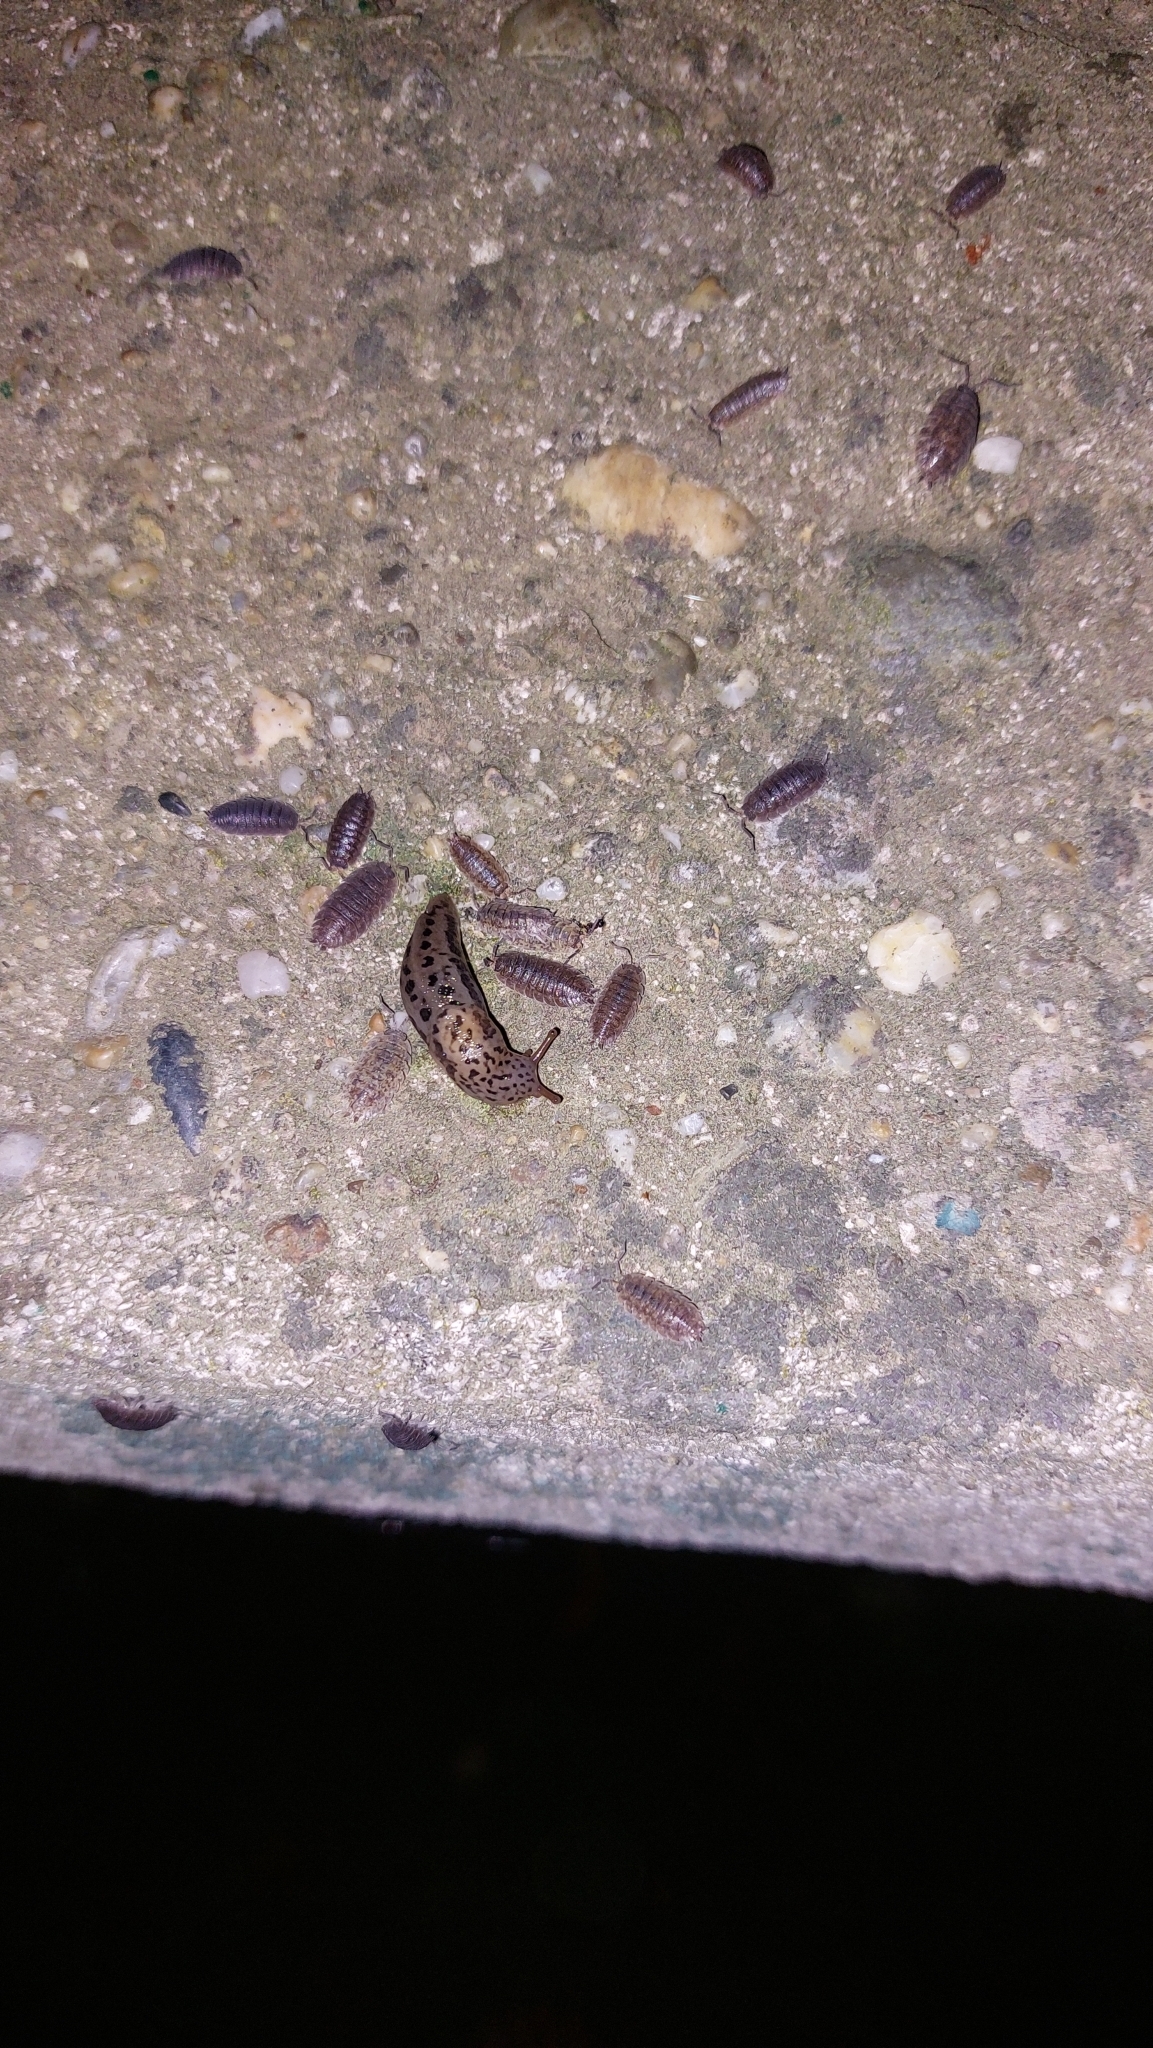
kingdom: Animalia
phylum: Mollusca
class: Gastropoda
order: Stylommatophora
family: Limacidae
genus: Limax
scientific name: Limax maximus
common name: Great grey slug
